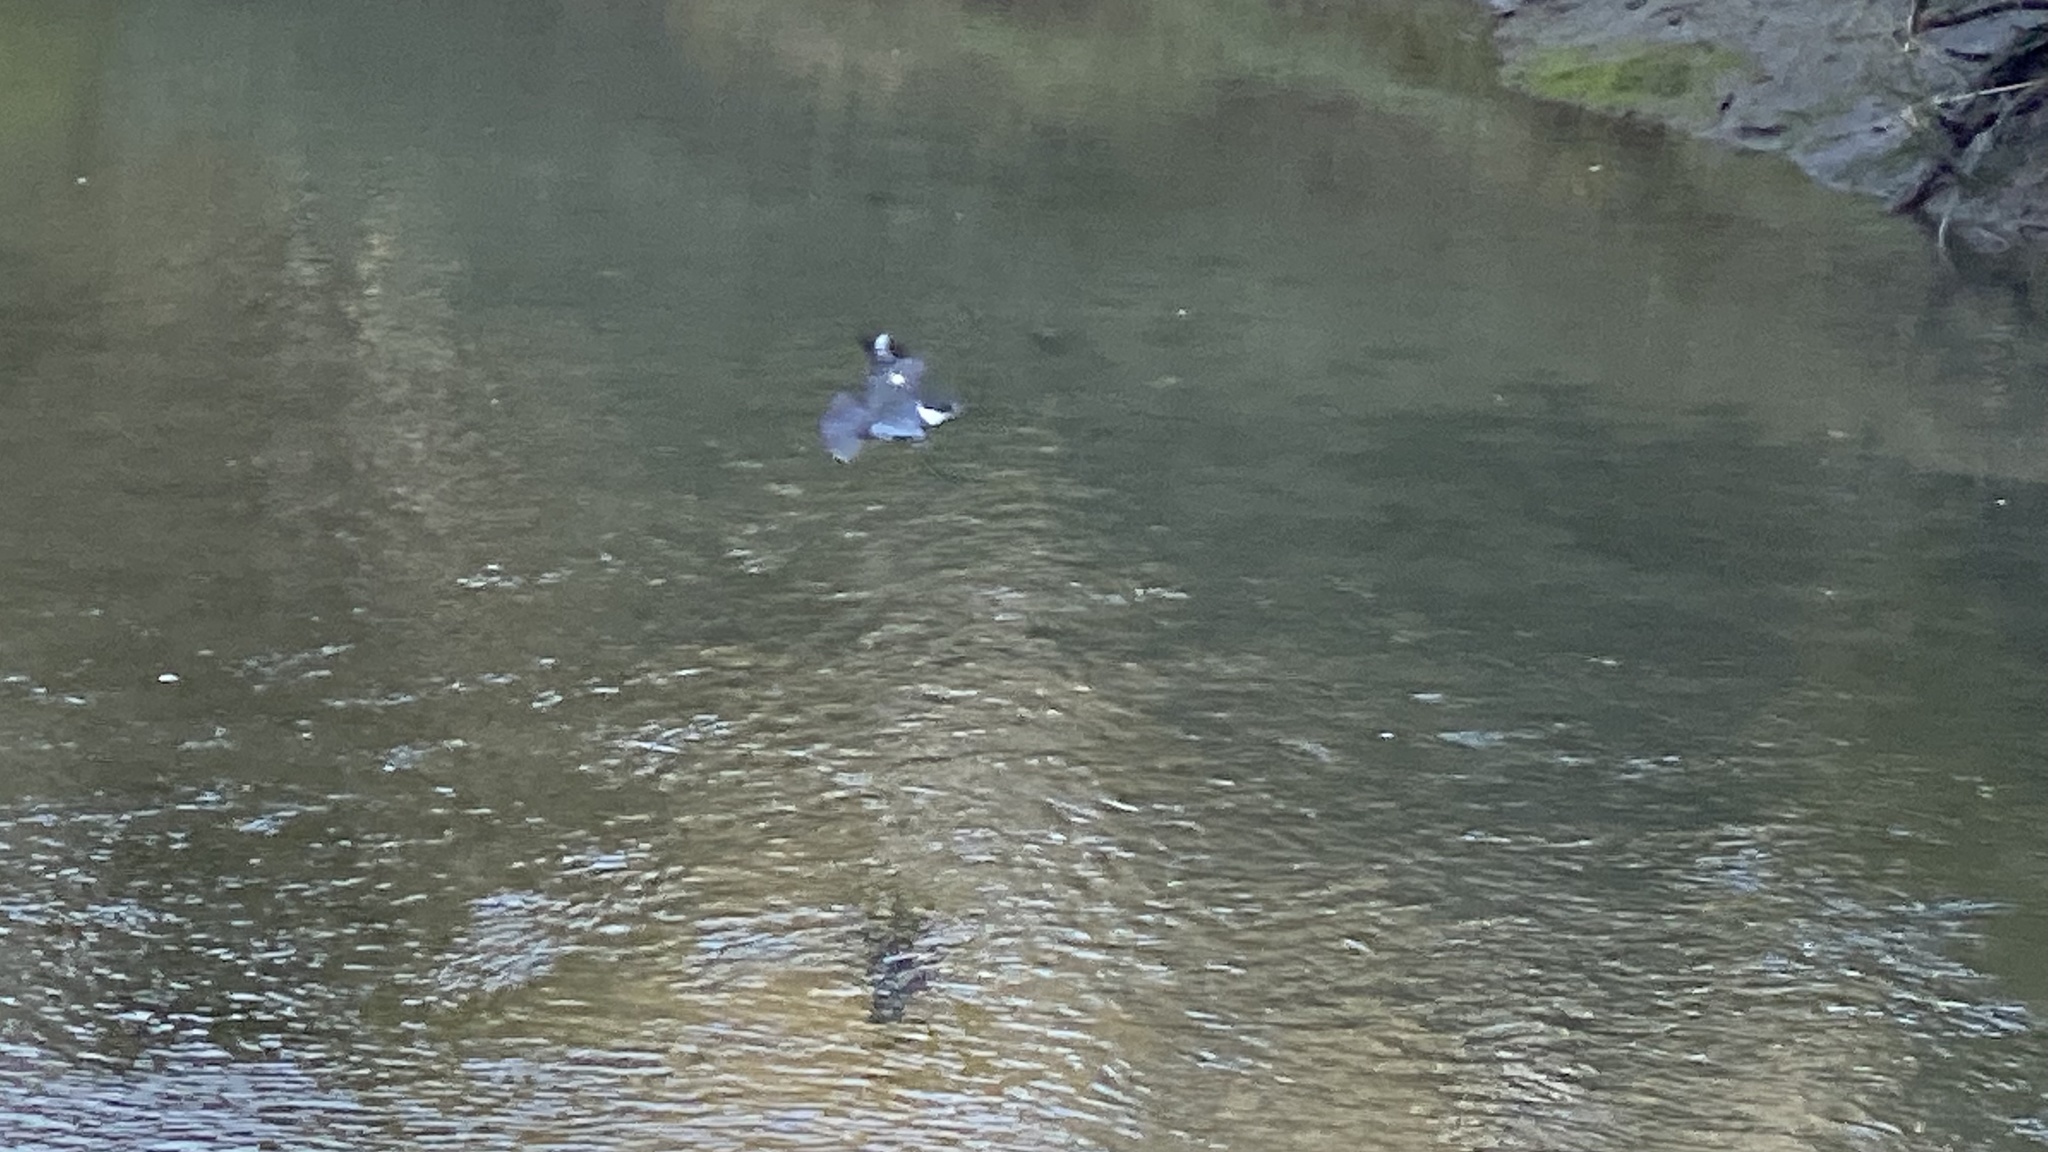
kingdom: Animalia
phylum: Chordata
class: Aves
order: Coraciiformes
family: Alcedinidae
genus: Megaceryle
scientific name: Megaceryle alcyon
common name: Belted kingfisher
